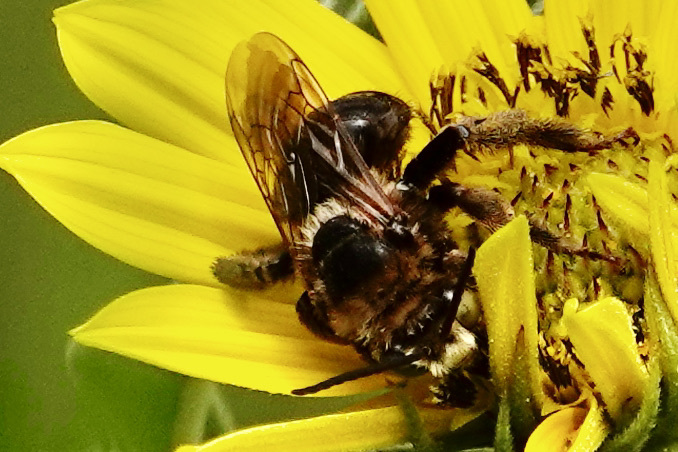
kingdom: Animalia
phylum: Arthropoda
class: Insecta
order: Hymenoptera
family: Apidae
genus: Svastra
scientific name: Svastra obliqua
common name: Oblique longhorn
